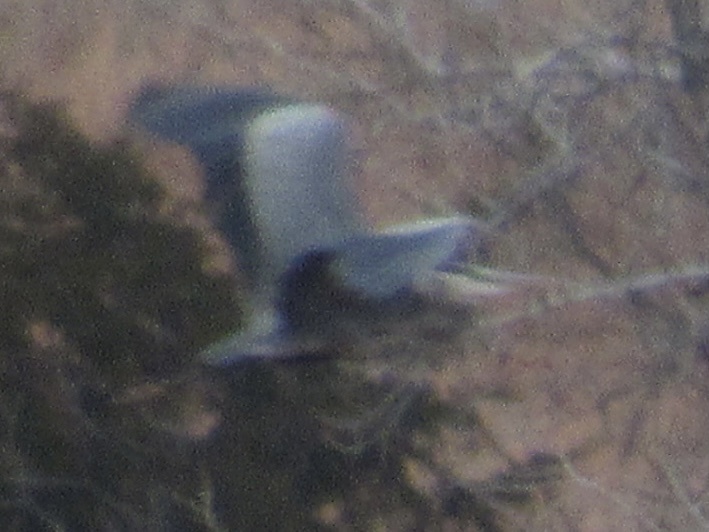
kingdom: Animalia
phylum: Chordata
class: Aves
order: Pelecaniformes
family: Ardeidae
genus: Ardea
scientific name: Ardea herodias
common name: Great blue heron
